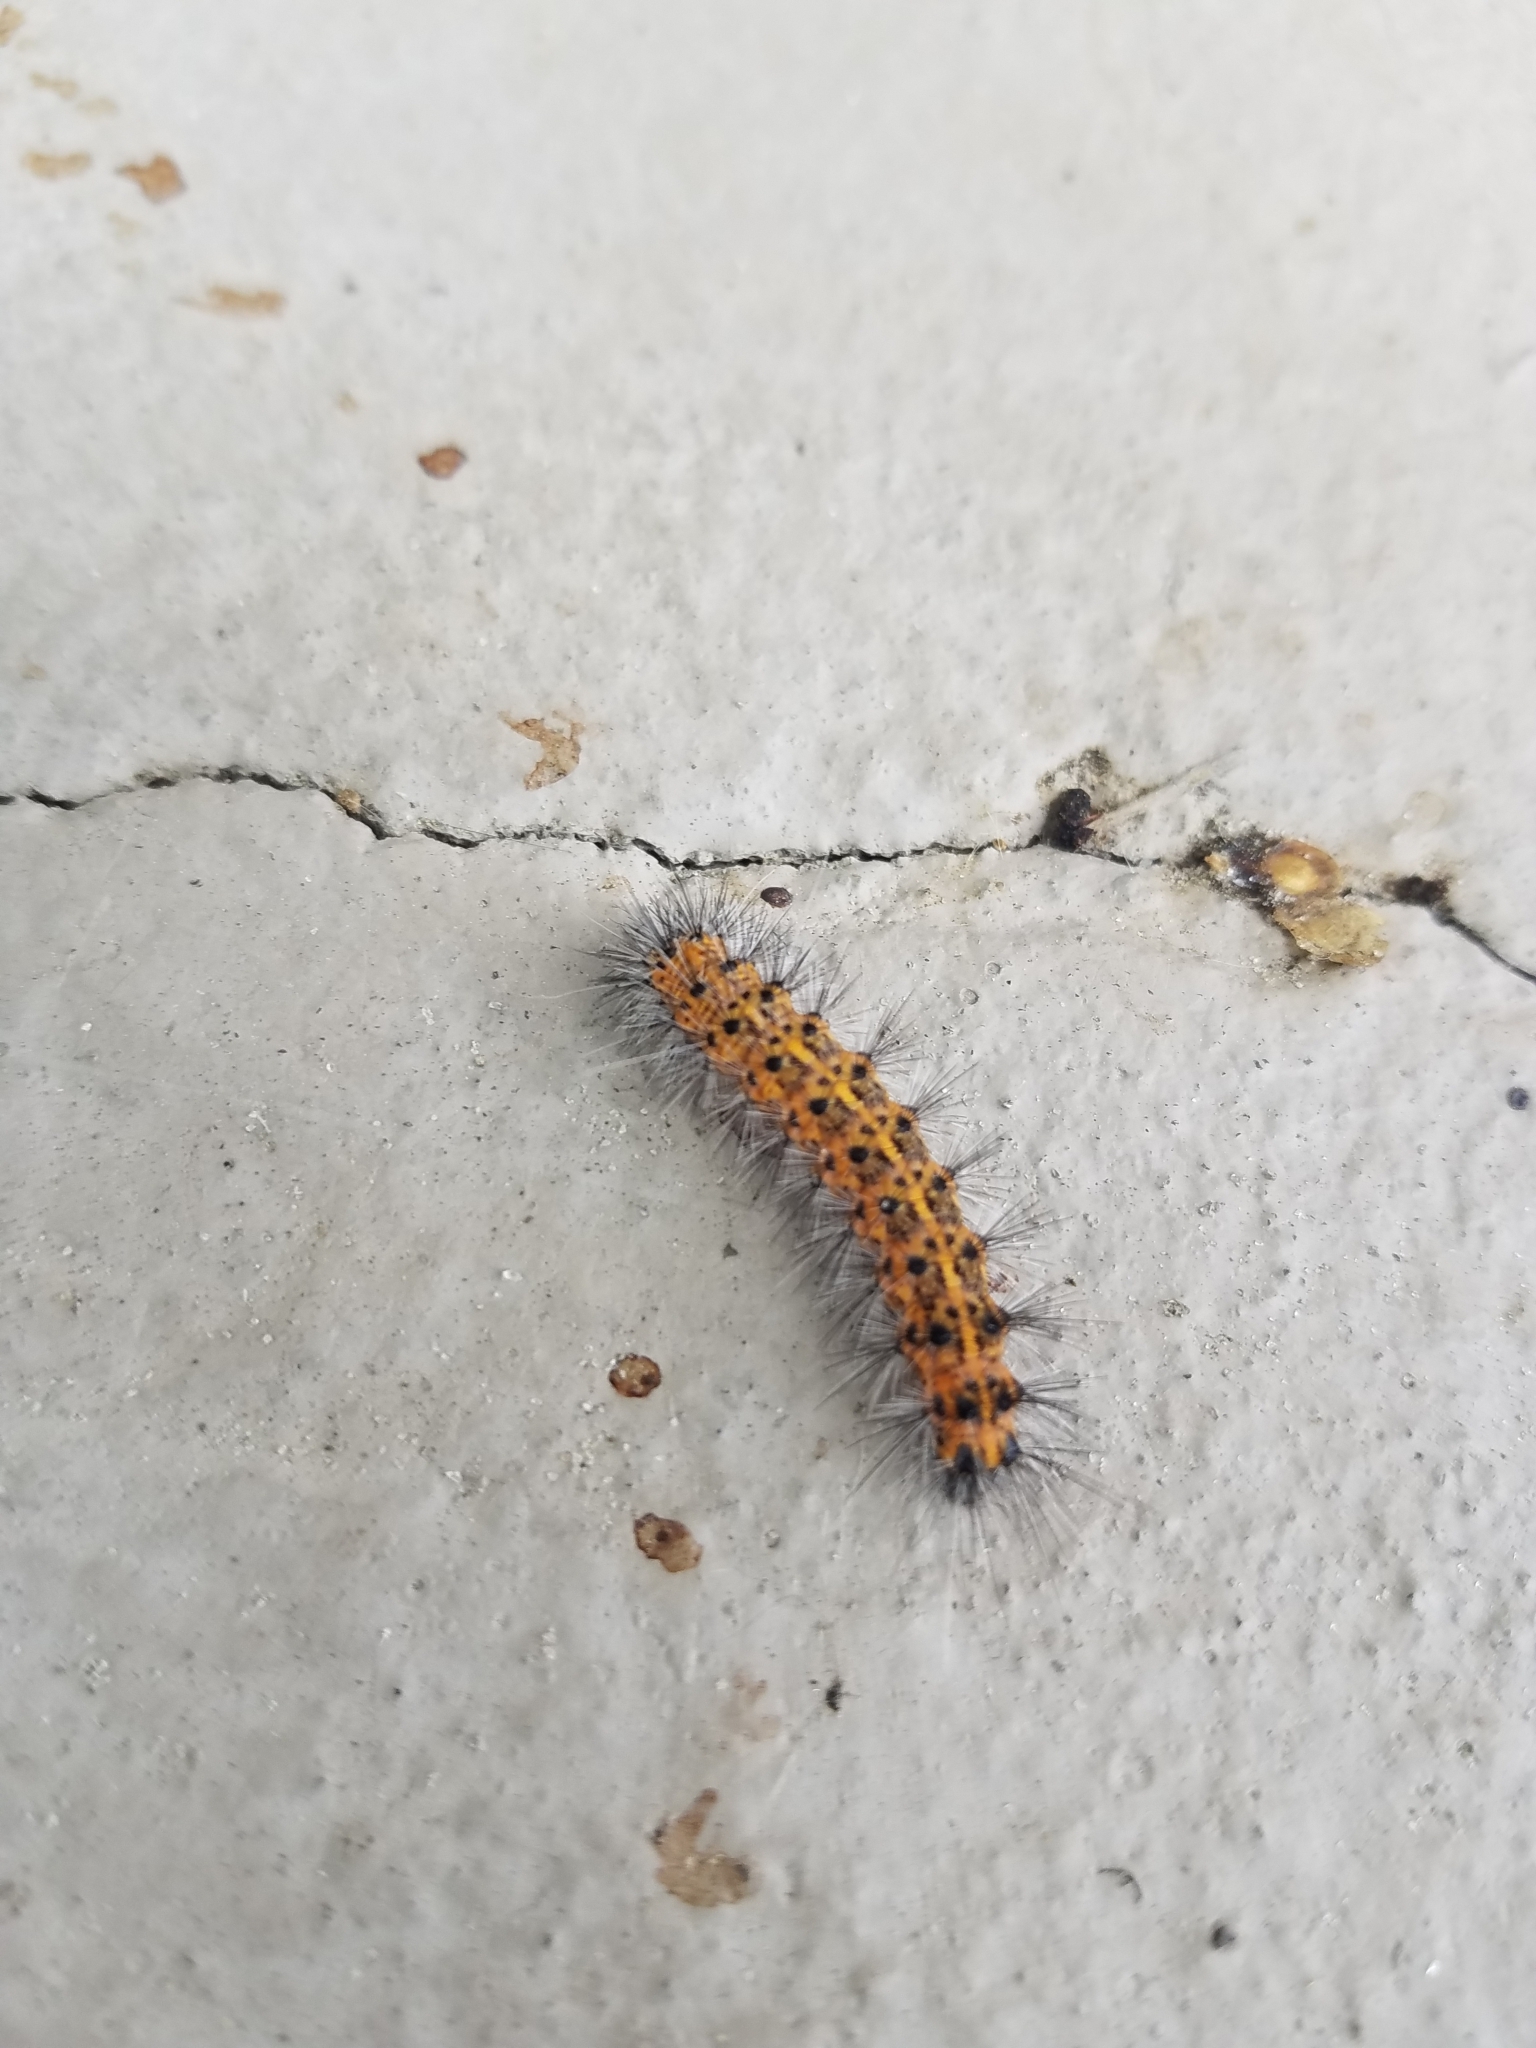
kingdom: Animalia
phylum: Arthropoda
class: Insecta
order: Lepidoptera
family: Erebidae
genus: Spilosoma
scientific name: Spilosoma dubia
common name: Dubious tiger moth
